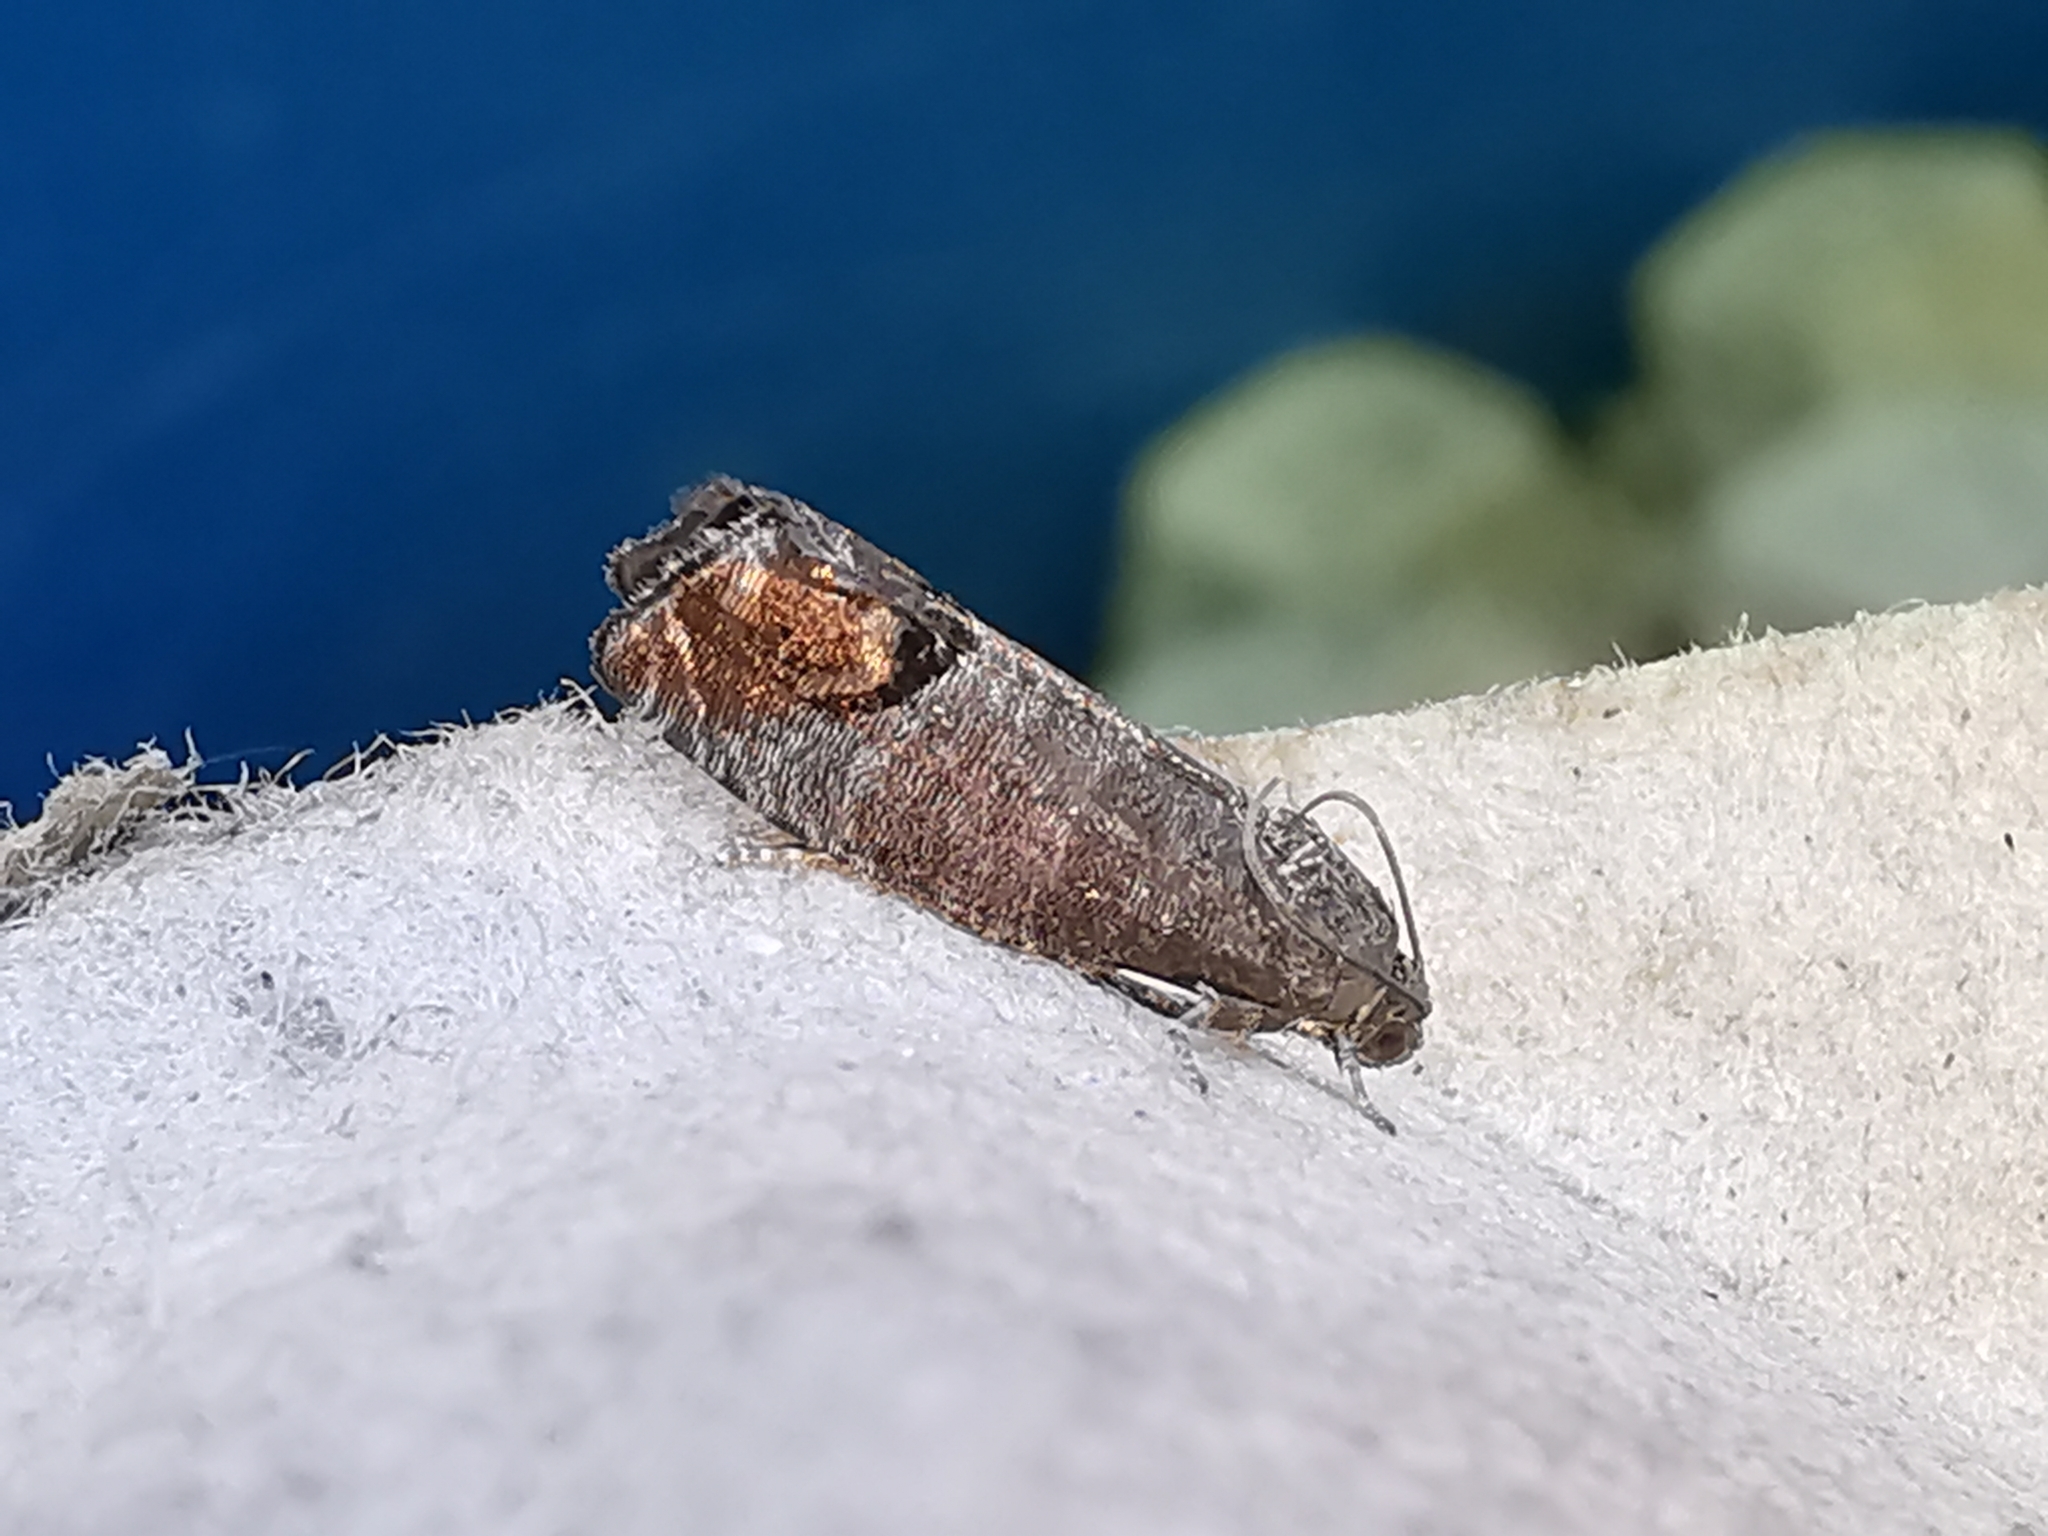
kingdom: Animalia
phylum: Arthropoda
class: Insecta
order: Lepidoptera
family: Tortricidae
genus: Cydia
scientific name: Cydia pomonella
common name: Codling moth
